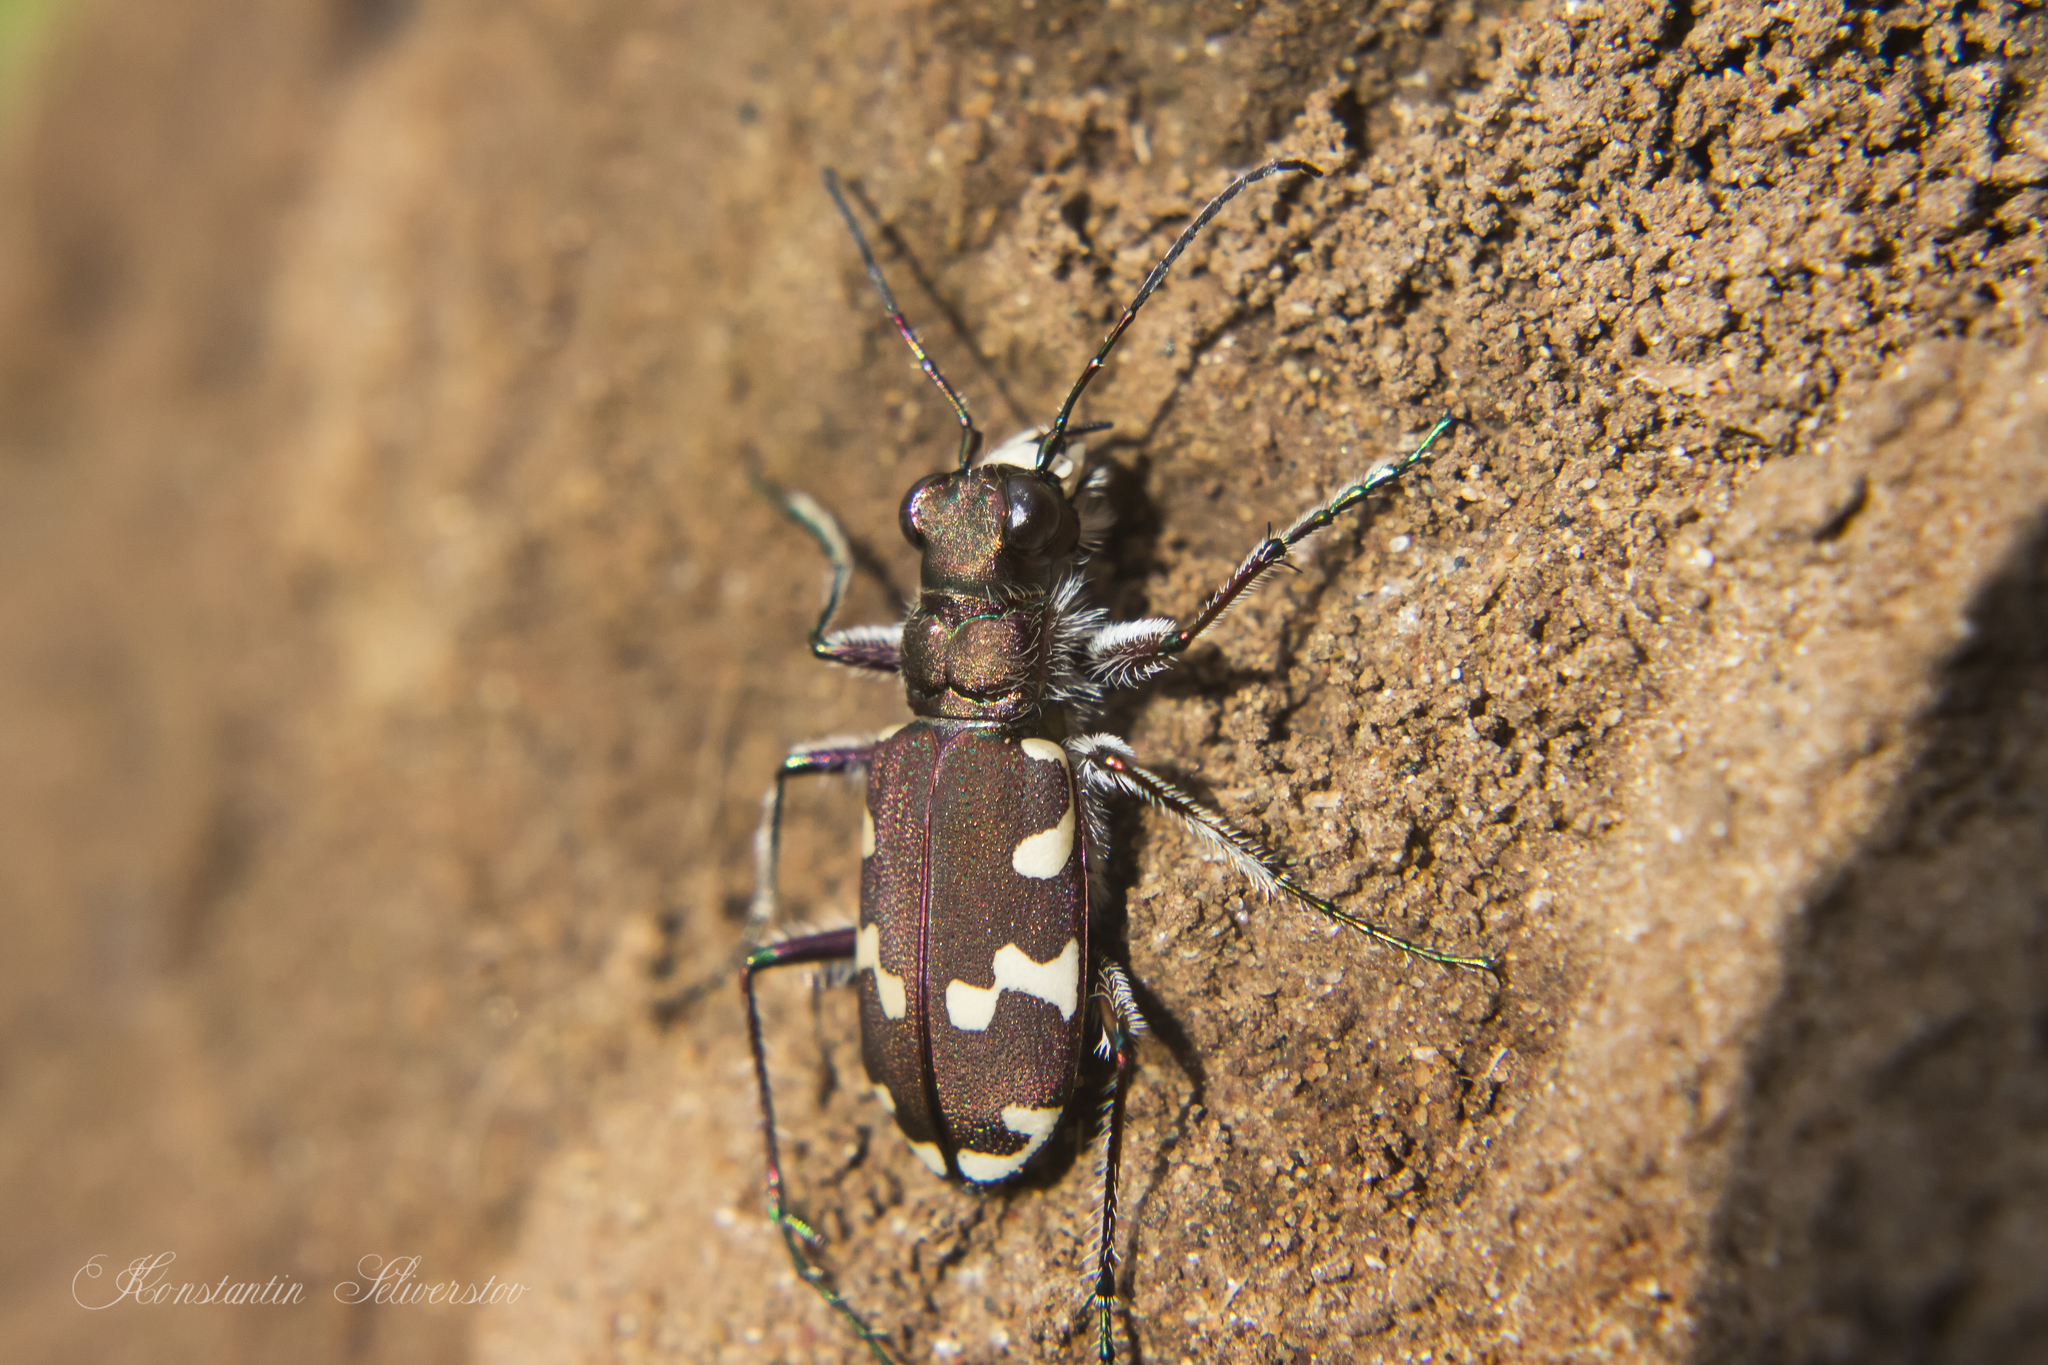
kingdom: Animalia
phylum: Arthropoda
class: Insecta
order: Coleoptera
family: Carabidae
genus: Cicindela
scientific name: Cicindela hybrida
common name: Northern dune tiger beetle
